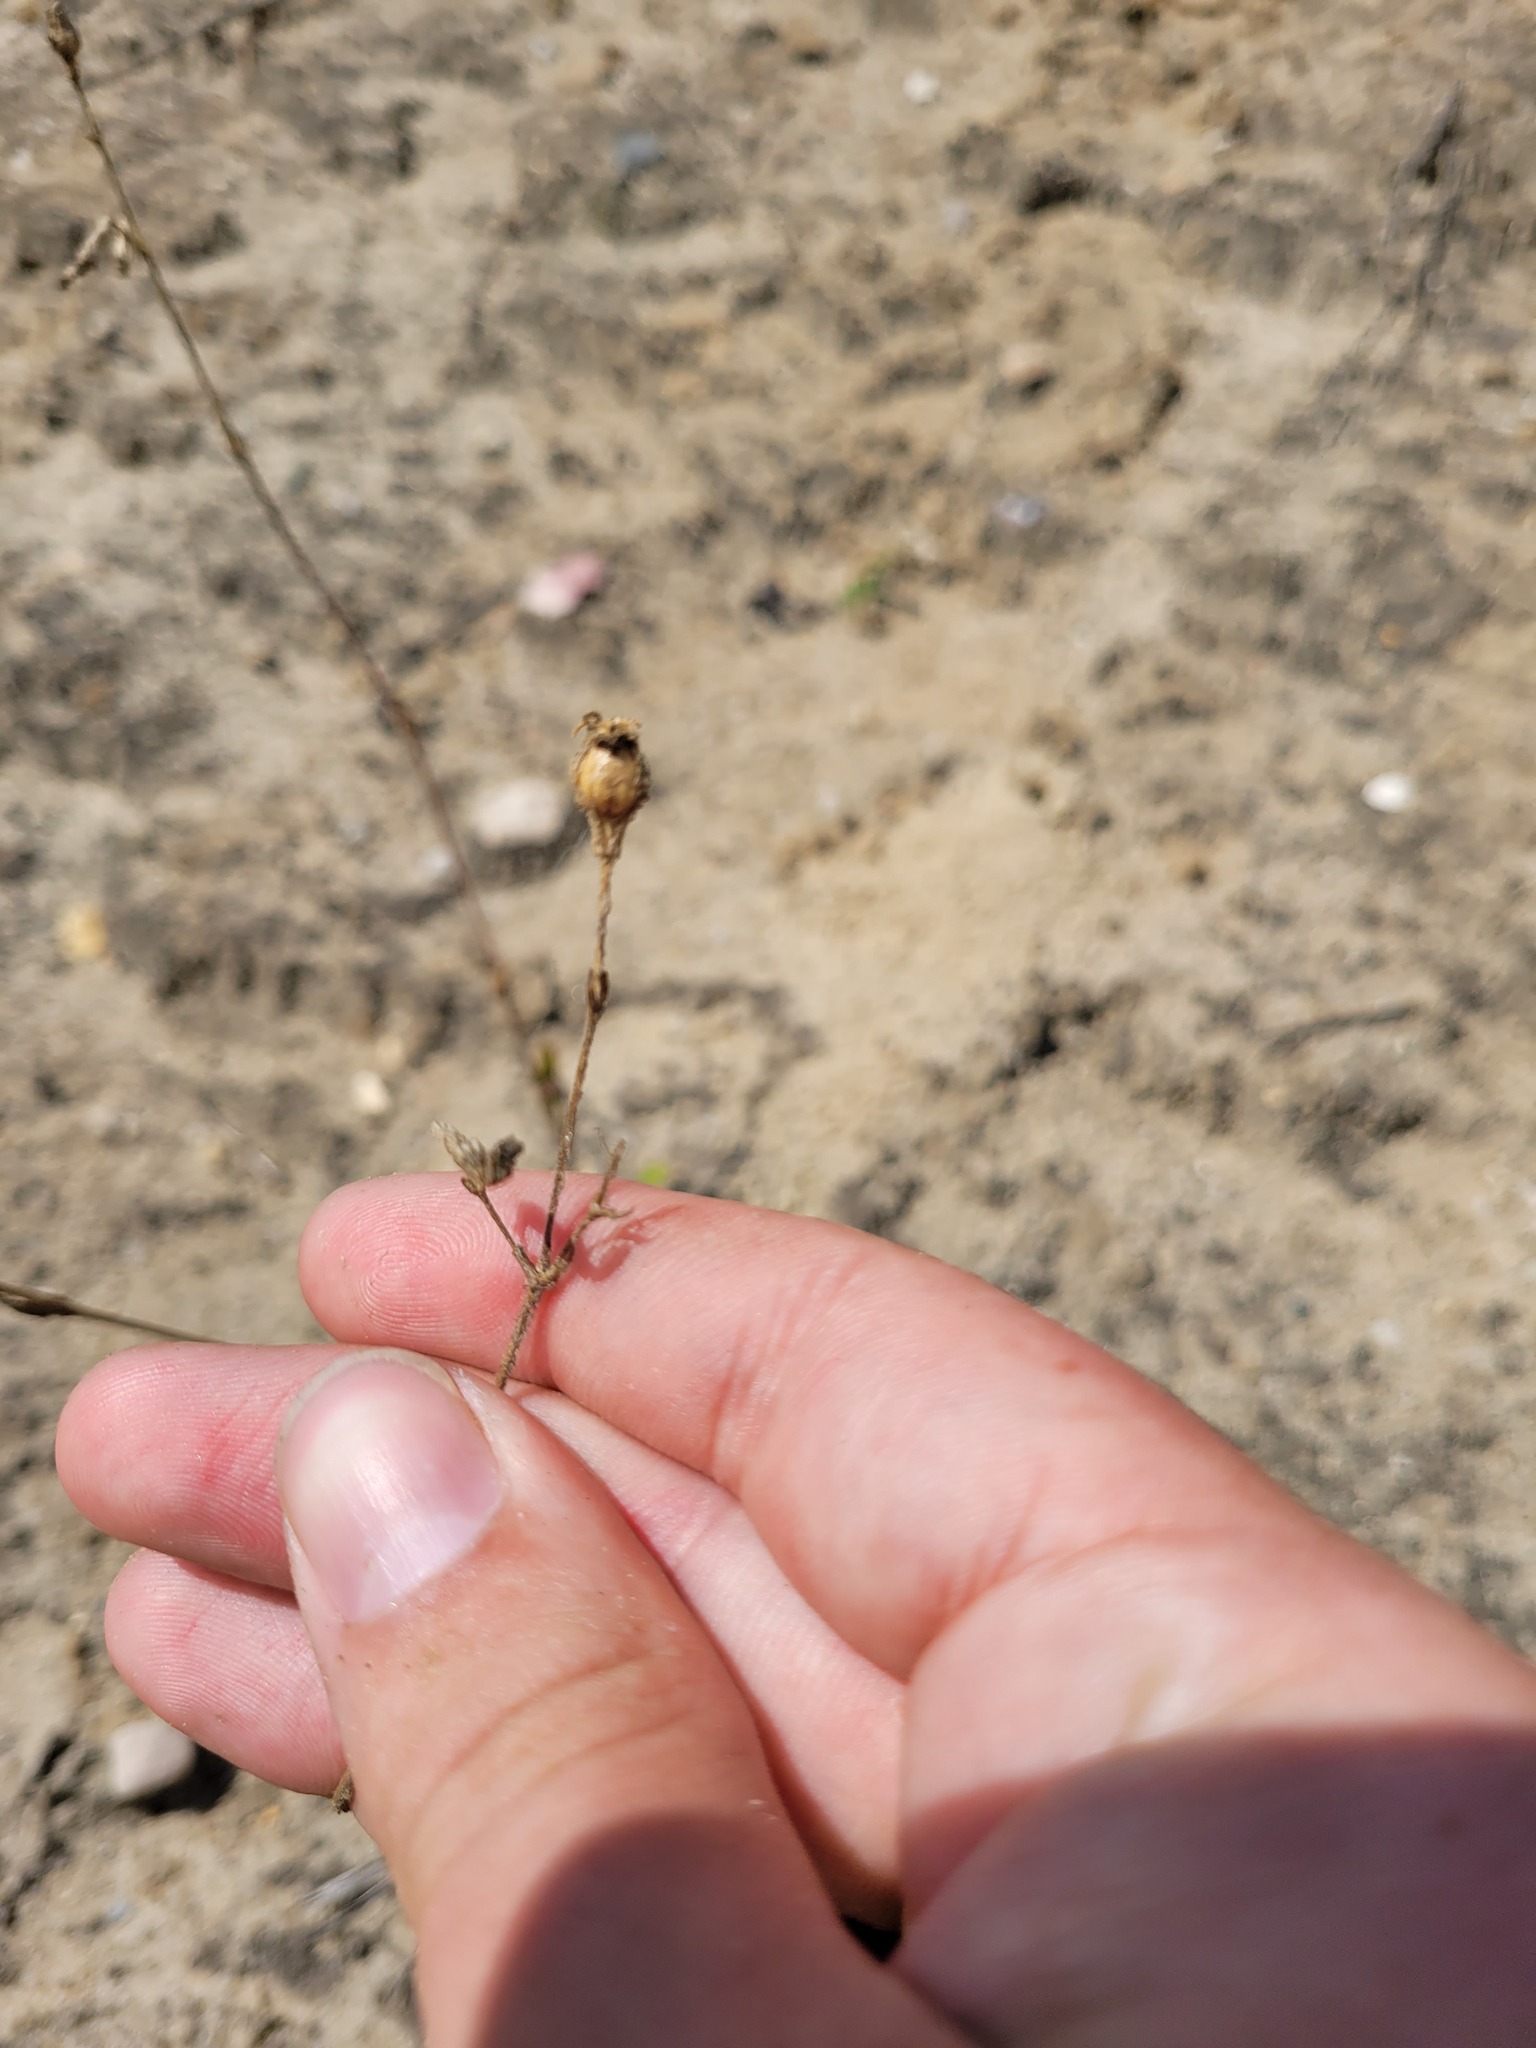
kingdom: Plantae
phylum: Tracheophyta
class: Magnoliopsida
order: Caryophyllales
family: Caryophyllaceae
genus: Silene
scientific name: Silene nutans
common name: Nottingham catchfly
